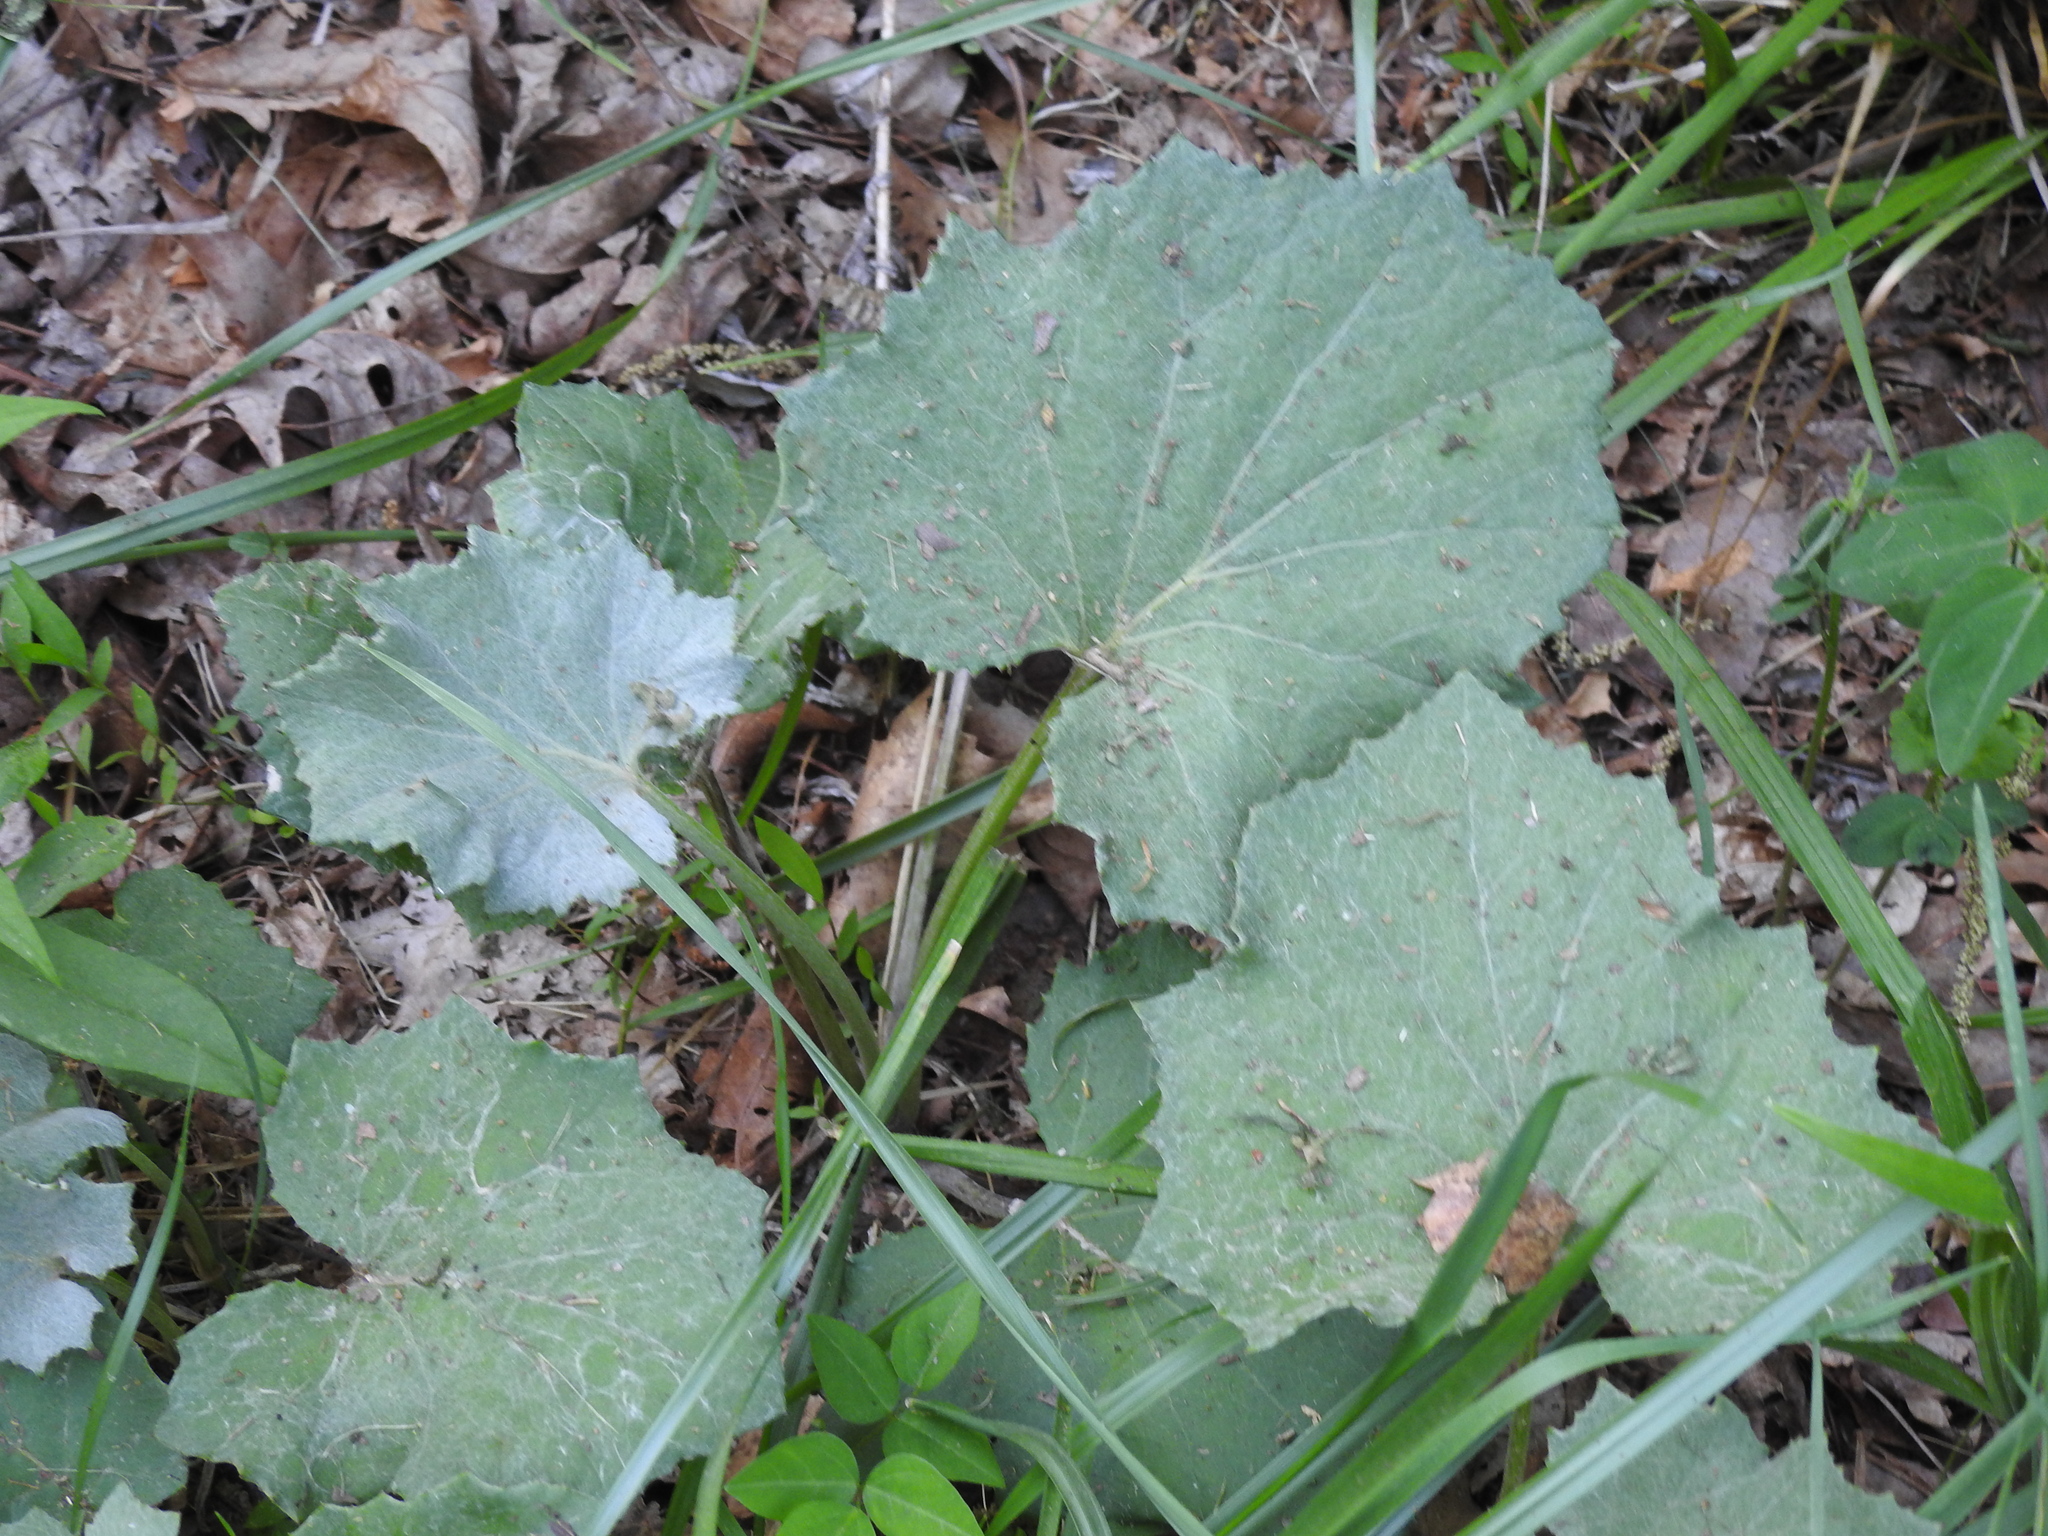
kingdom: Plantae
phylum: Tracheophyta
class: Magnoliopsida
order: Asterales
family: Asteraceae
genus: Tussilago
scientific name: Tussilago farfara
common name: Coltsfoot
